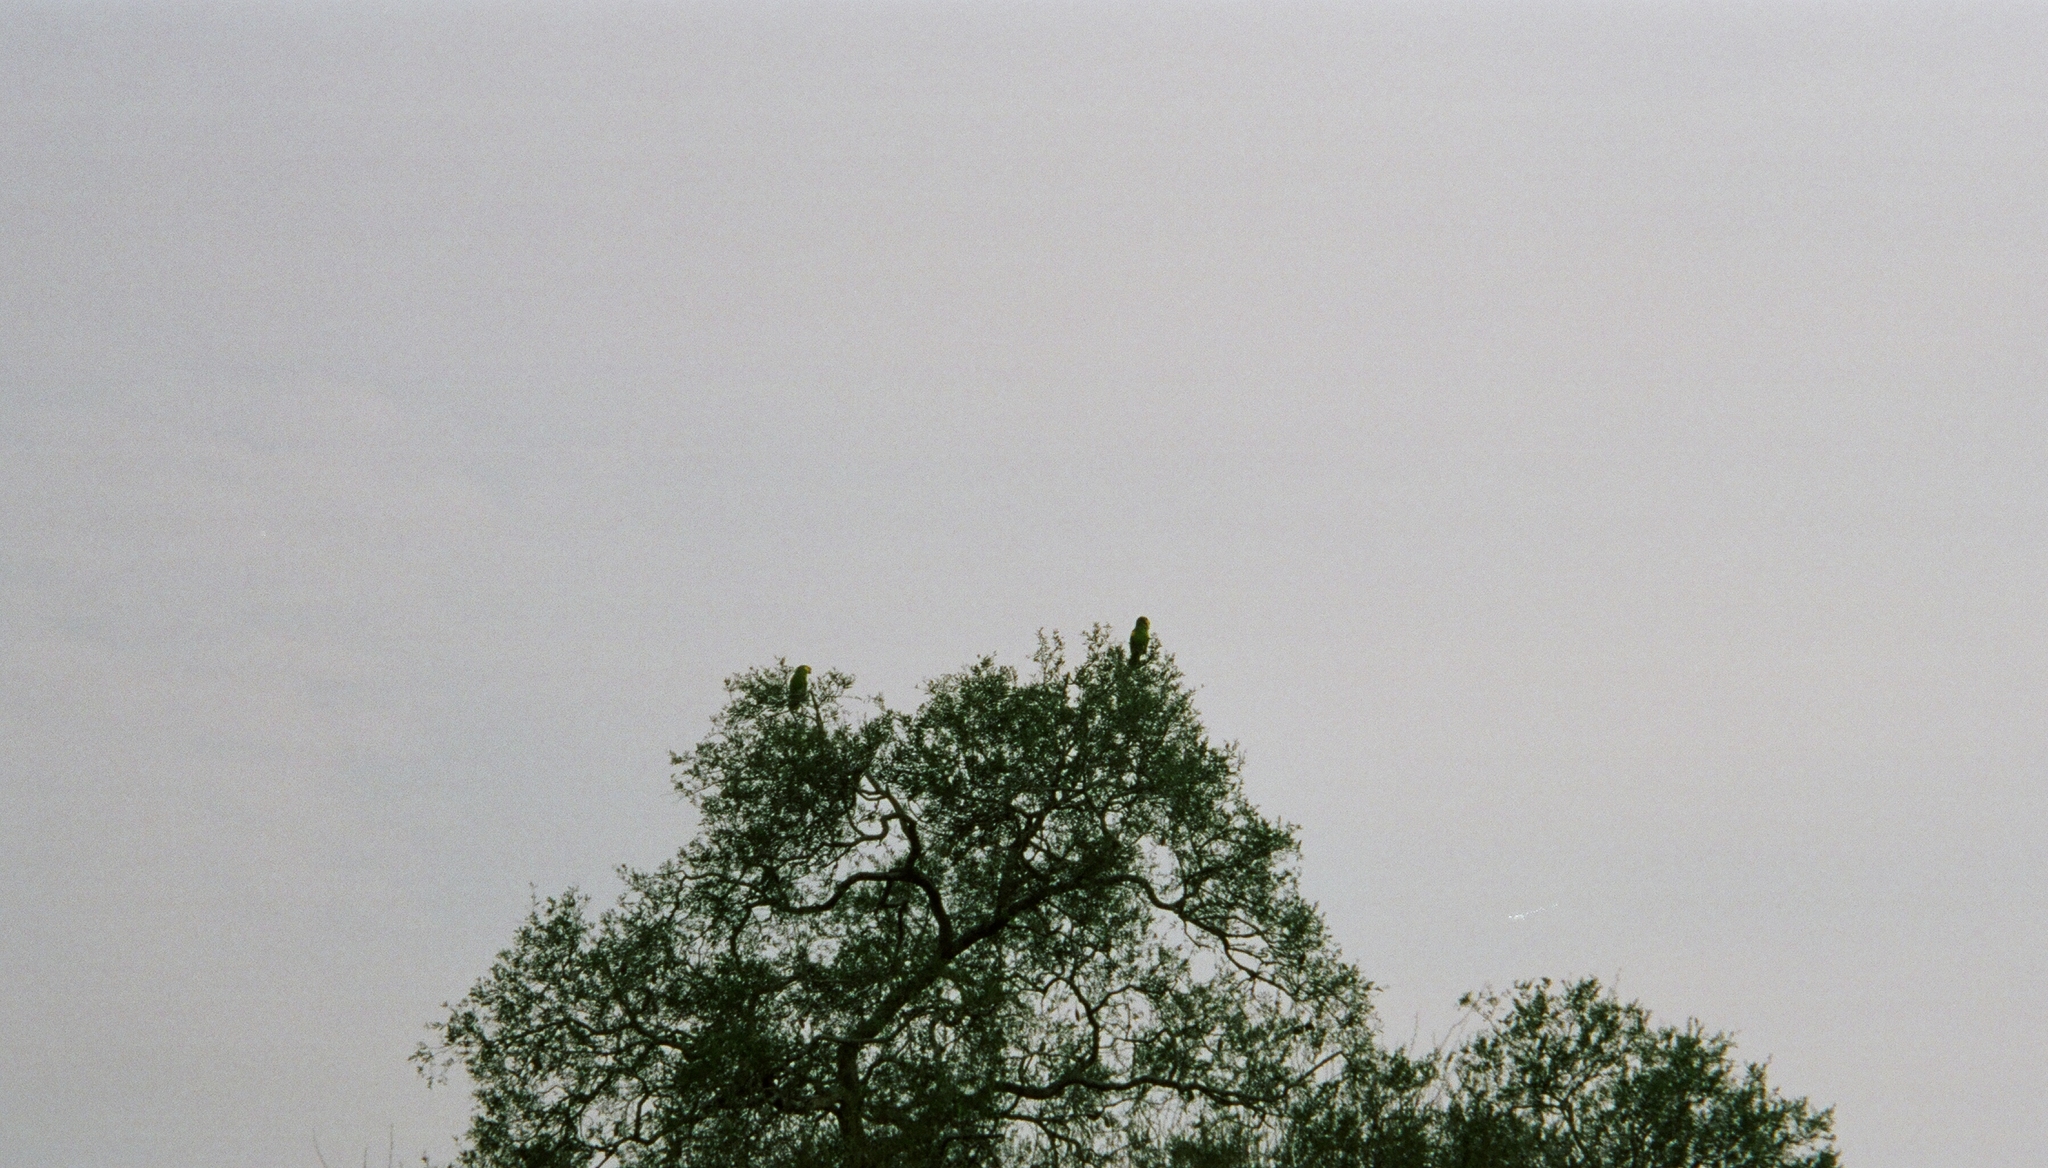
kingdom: Animalia
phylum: Chordata
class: Aves
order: Psittaciformes
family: Psittacidae
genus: Amazona
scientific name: Amazona aestiva
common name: Turquoise-fronted amazon
